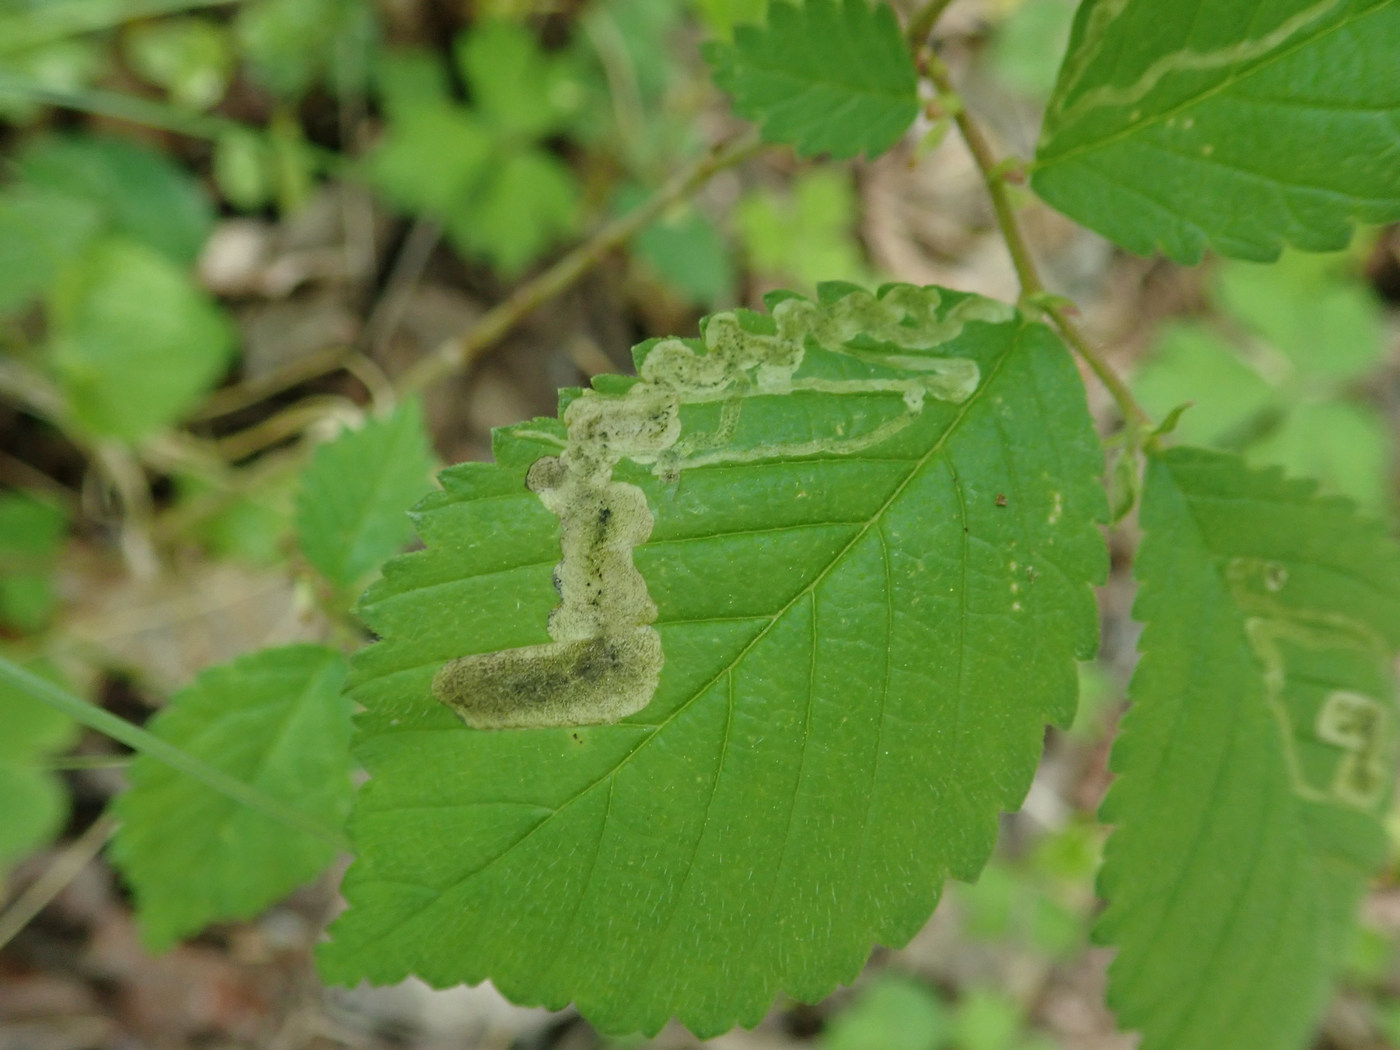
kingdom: Animalia
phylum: Arthropoda
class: Insecta
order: Diptera
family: Agromyzidae
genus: Agromyza
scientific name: Agromyza aristata
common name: Elm agromyzid leafminer
